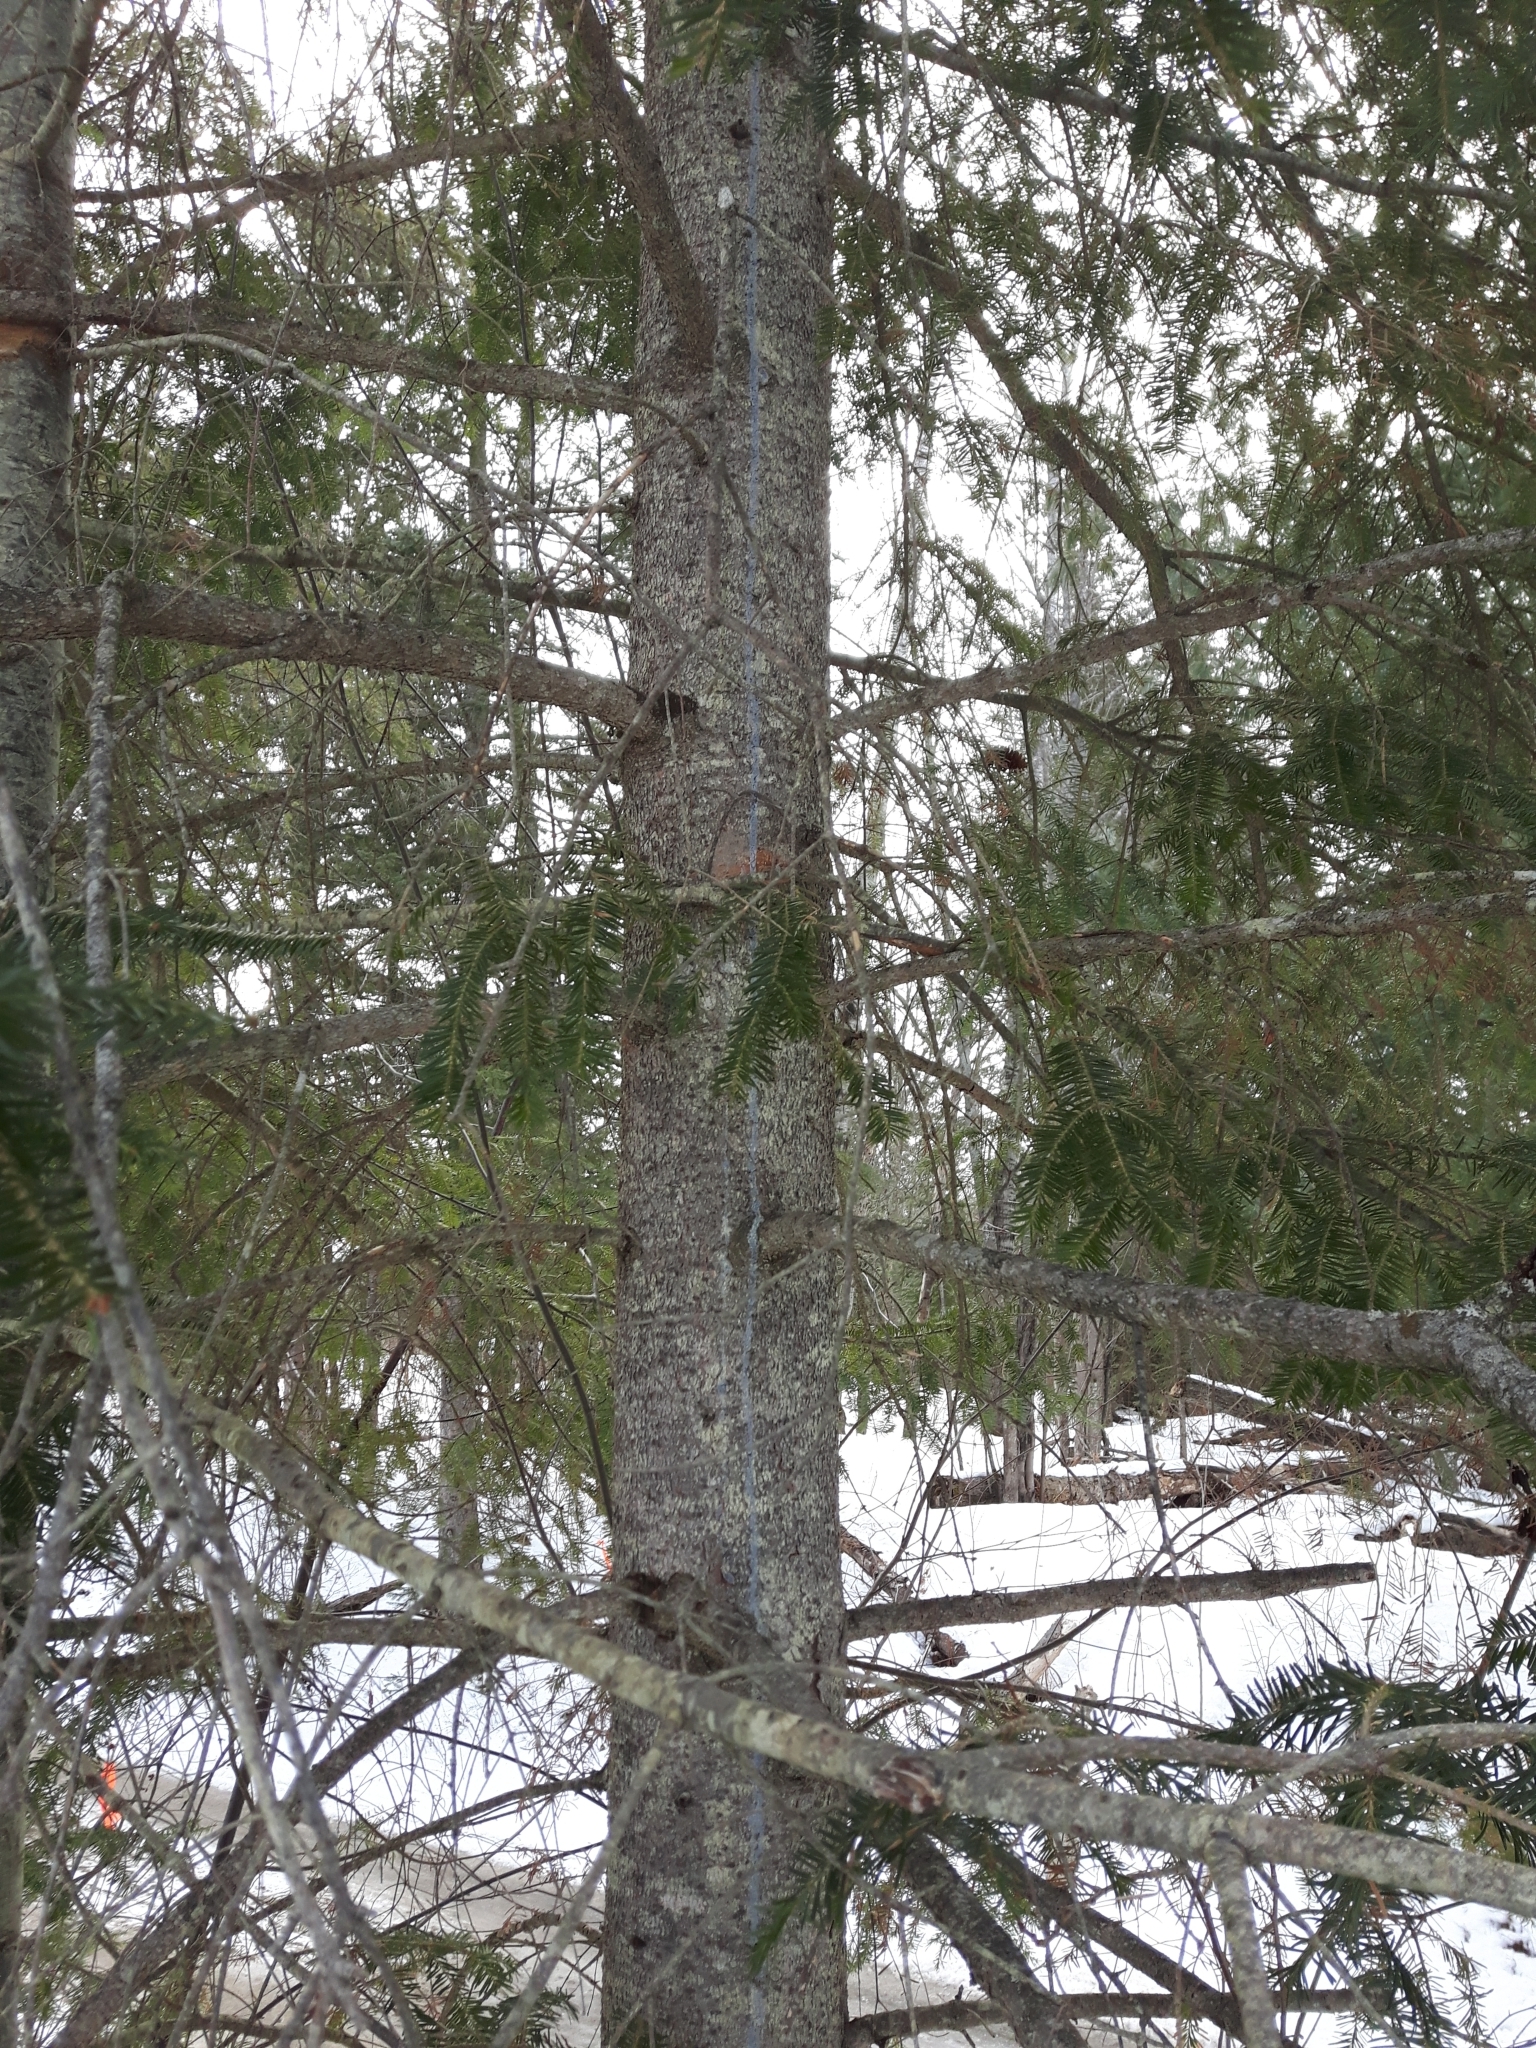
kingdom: Plantae
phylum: Tracheophyta
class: Pinopsida
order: Pinales
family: Pinaceae
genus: Picea
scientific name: Picea glauca
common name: White spruce
